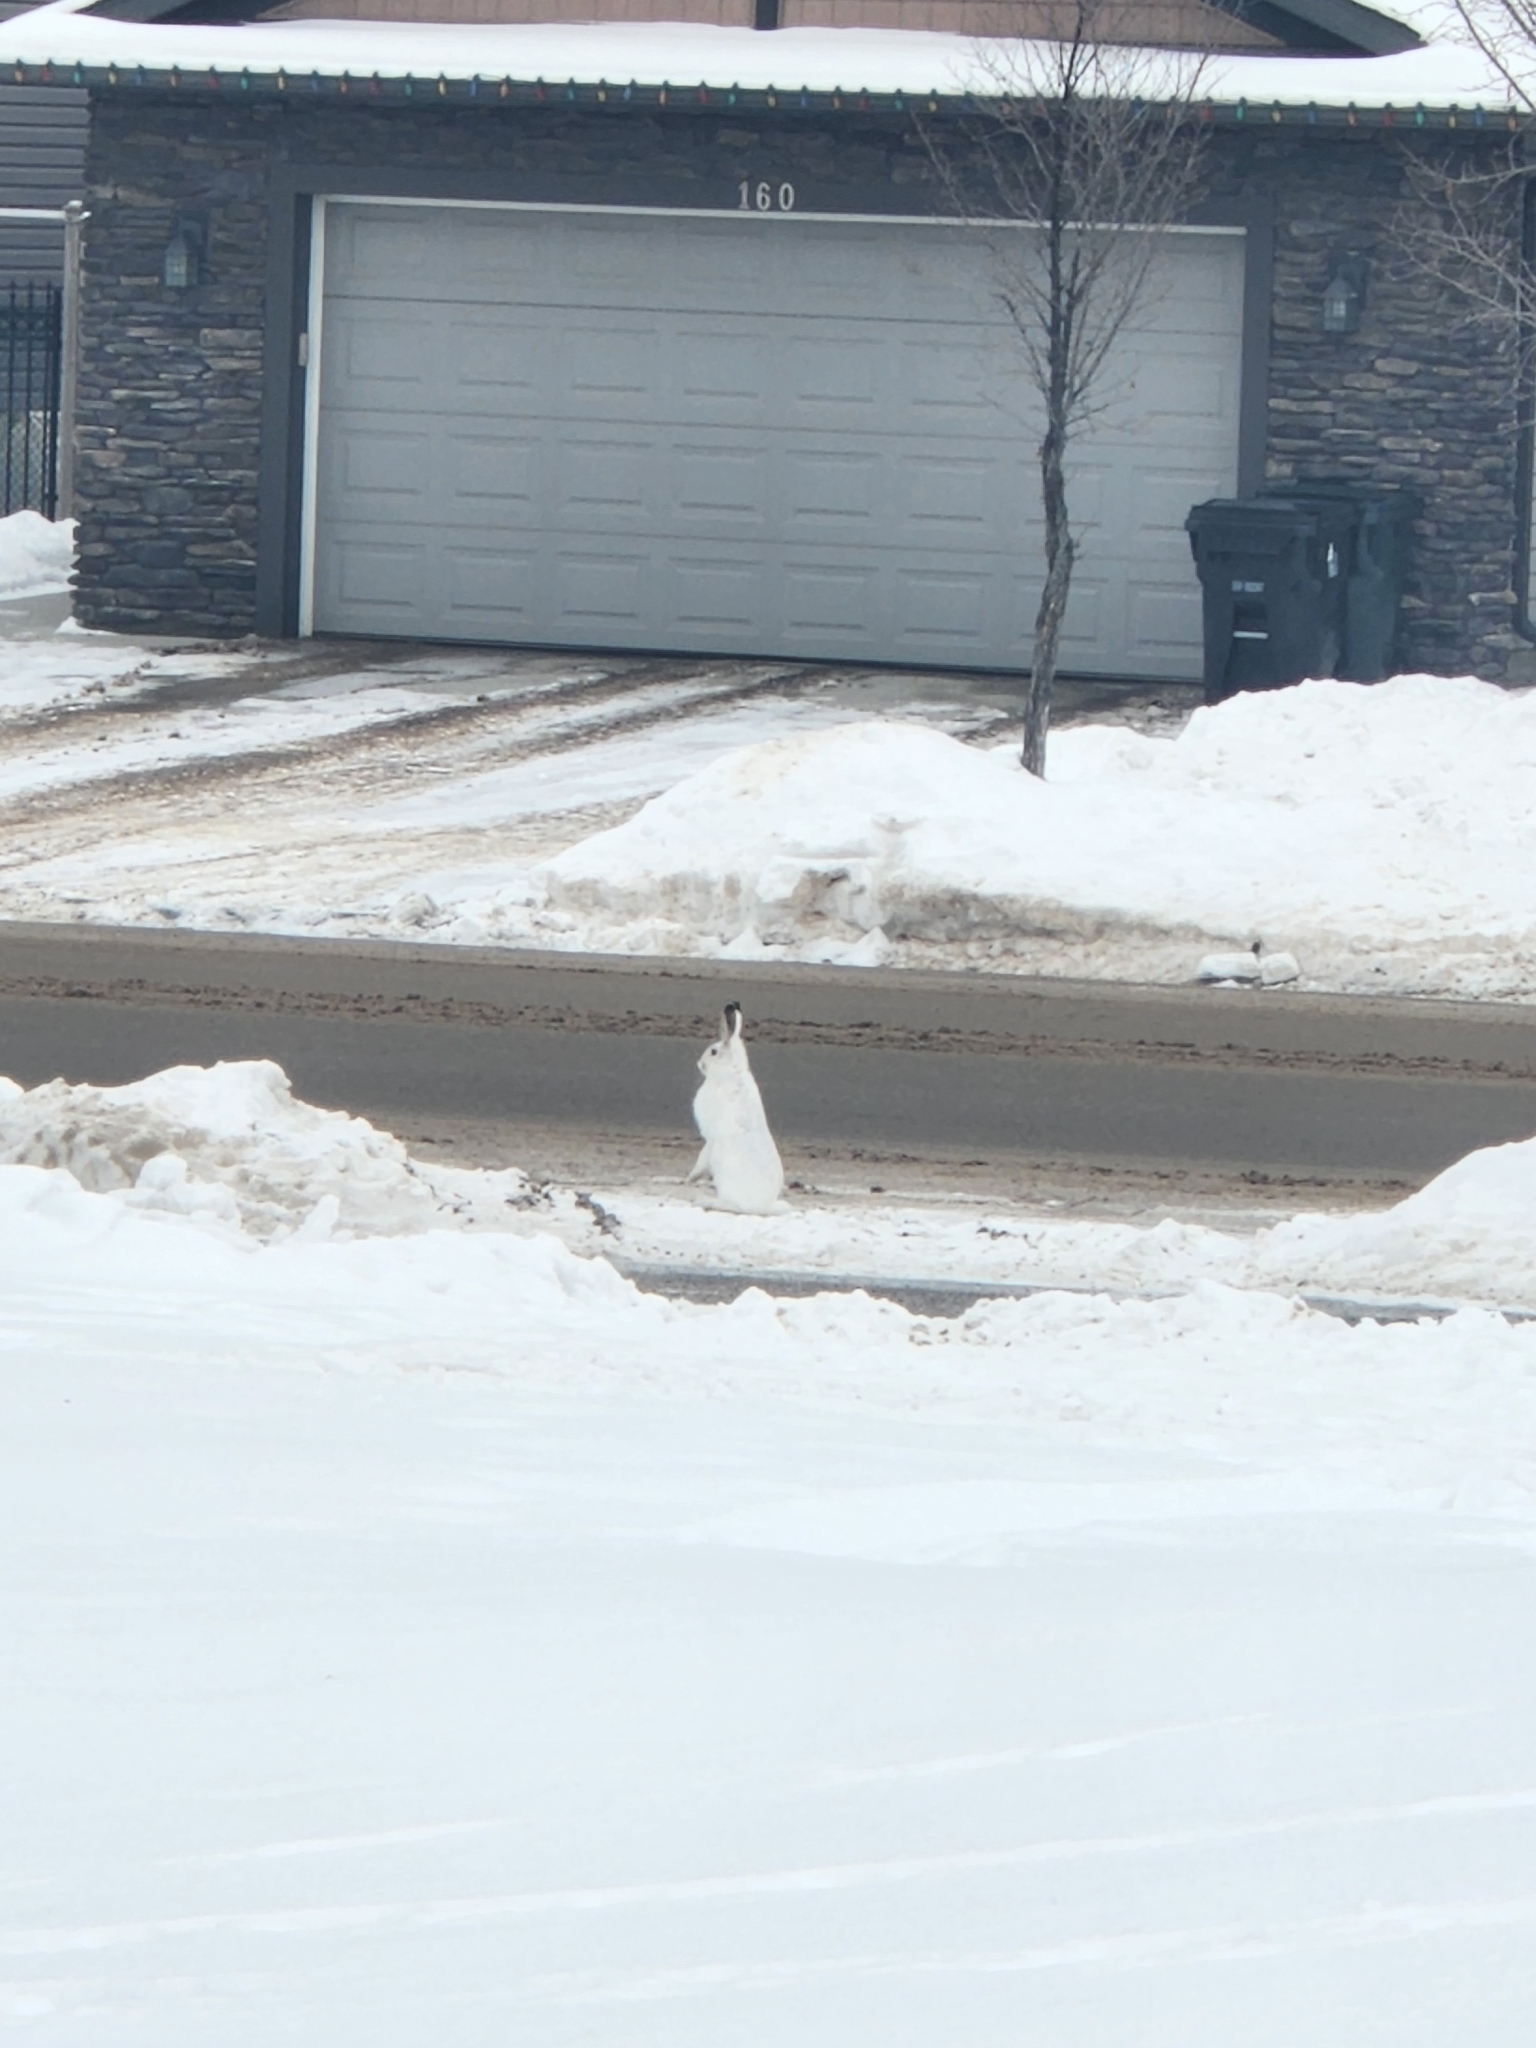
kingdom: Animalia
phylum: Chordata
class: Mammalia
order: Lagomorpha
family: Leporidae
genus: Lepus
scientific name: Lepus townsendii
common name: White-tailed jackrabbit
